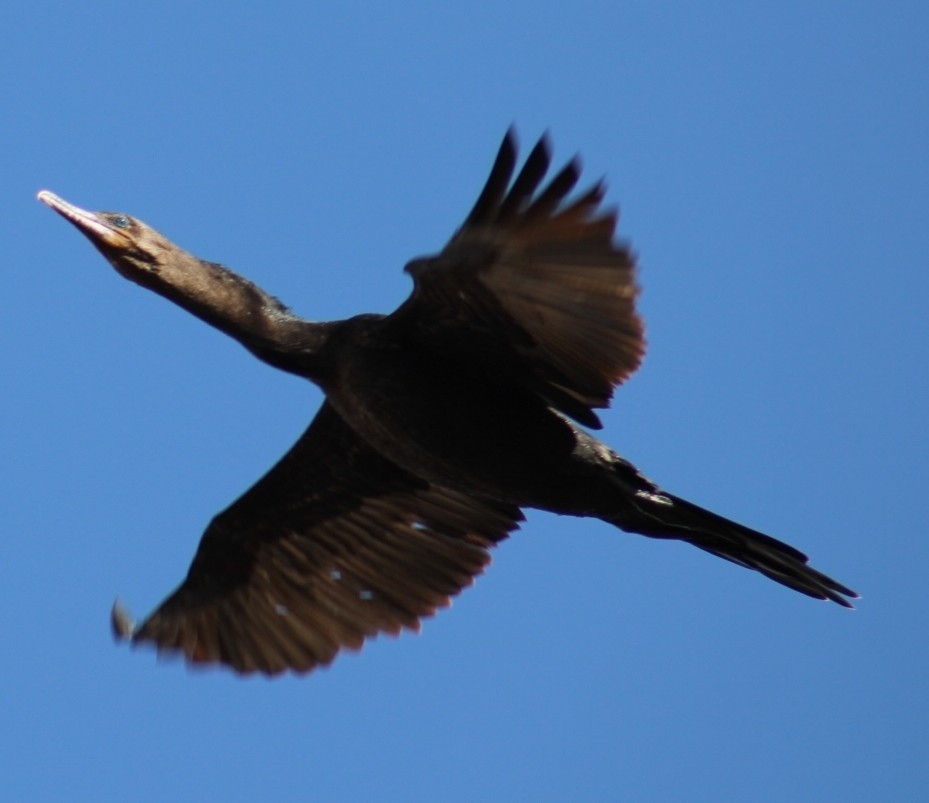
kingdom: Animalia
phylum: Chordata
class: Aves
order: Suliformes
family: Phalacrocoracidae
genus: Phalacrocorax
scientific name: Phalacrocorax brasilianus
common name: Neotropic cormorant
